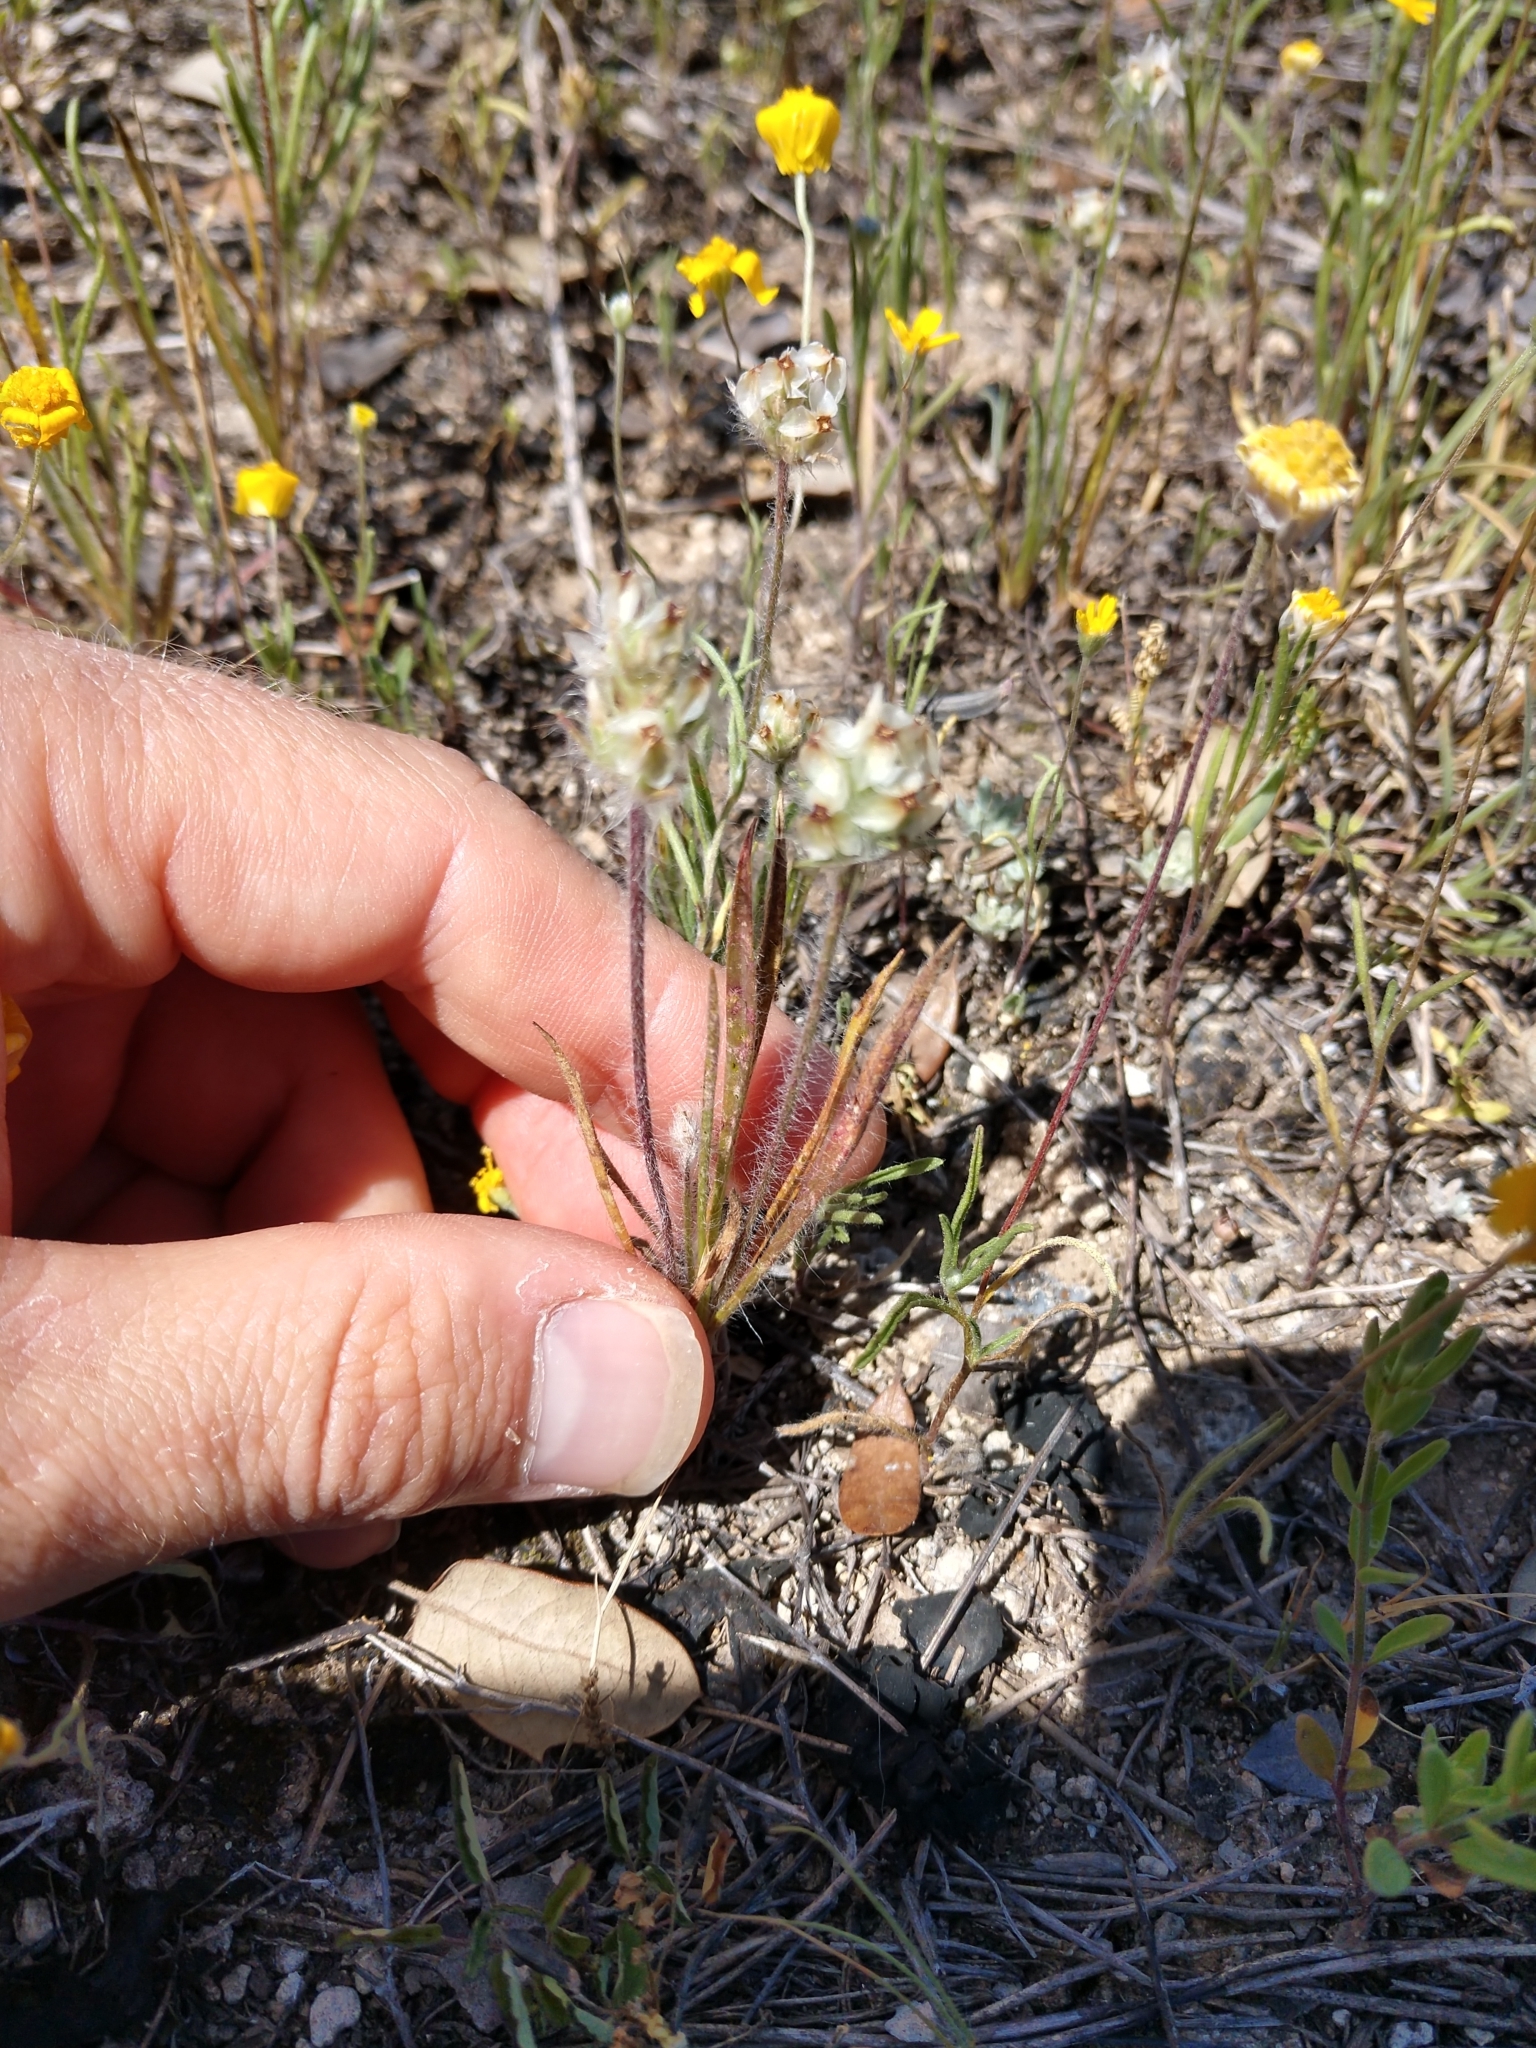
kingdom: Plantae
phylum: Tracheophyta
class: Magnoliopsida
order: Lamiales
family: Plantaginaceae
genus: Plantago
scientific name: Plantago helleri
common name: Heller's plantain
